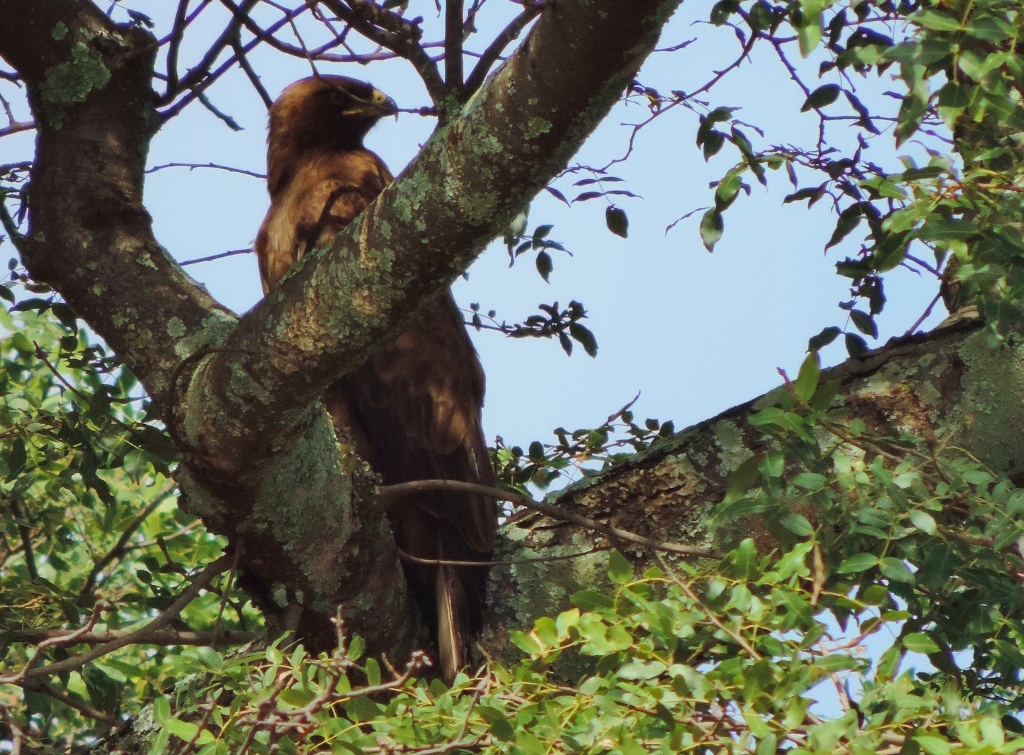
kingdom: Animalia
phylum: Chordata
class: Aves
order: Accipitriformes
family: Accipitridae
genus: Hieraaetus
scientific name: Hieraaetus wahlbergi
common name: Wahlberg's eagle
